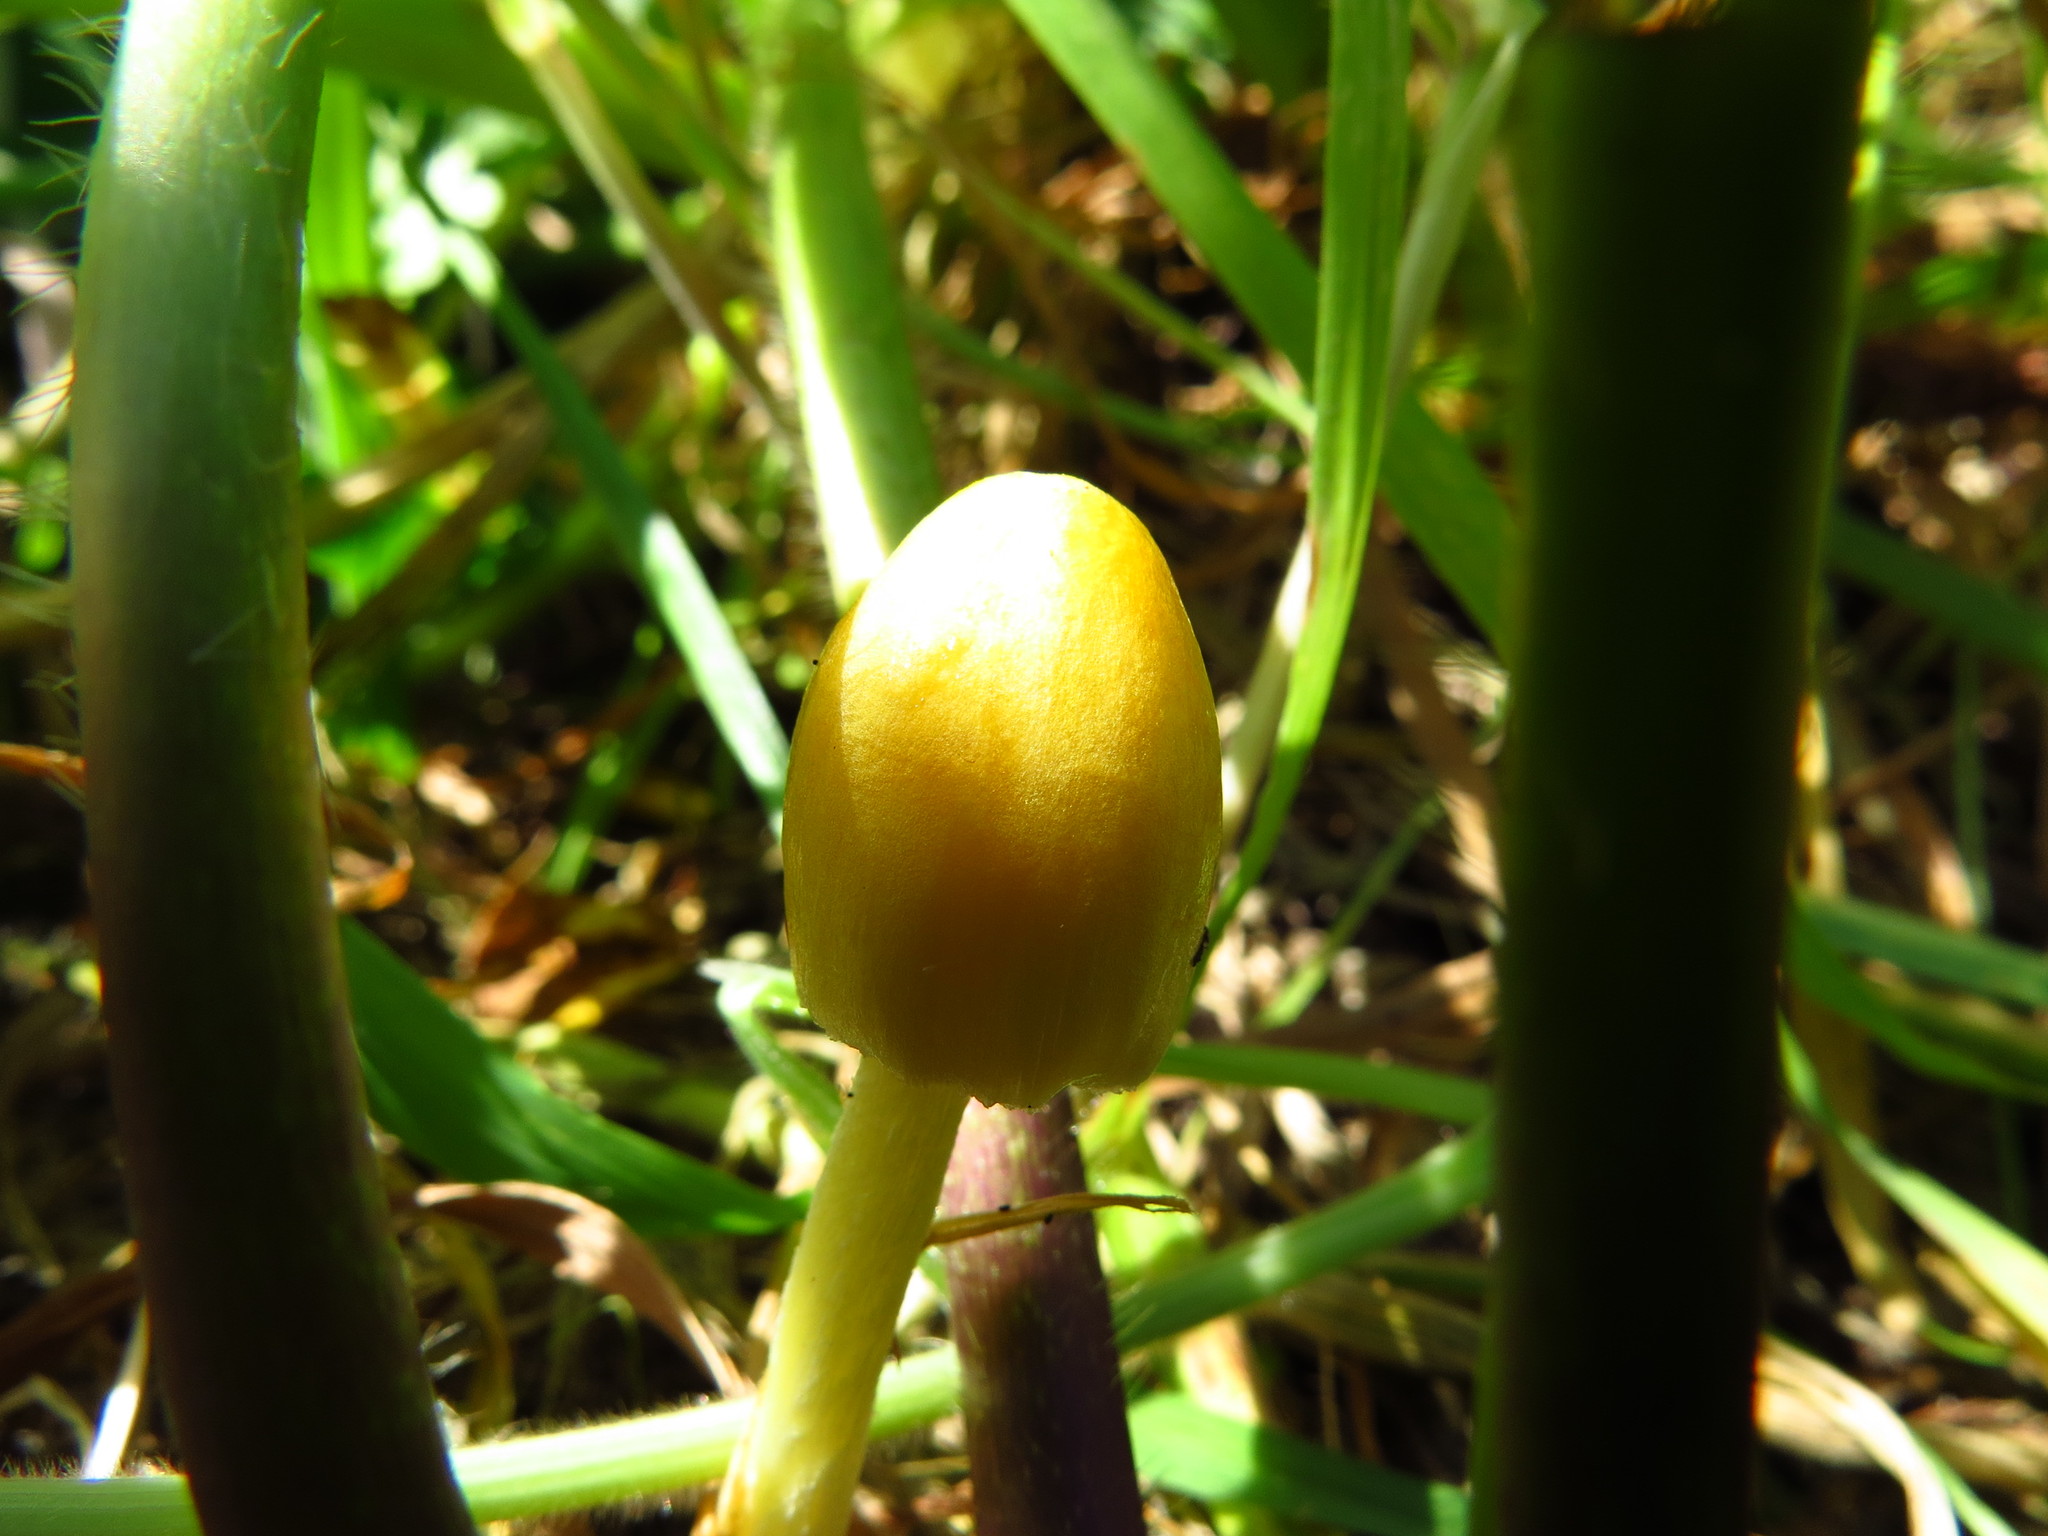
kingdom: Fungi
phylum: Basidiomycota
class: Agaricomycetes
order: Agaricales
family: Bolbitiaceae
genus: Bolbitius
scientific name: Bolbitius titubans
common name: Yellow fieldcap
